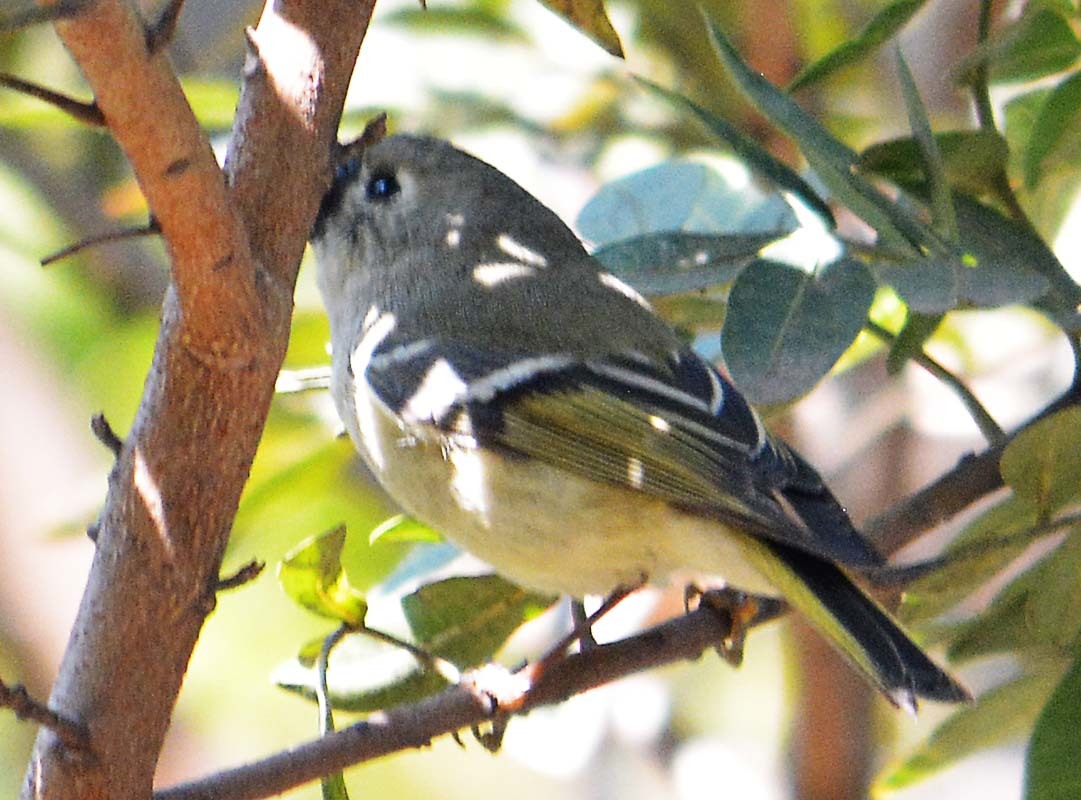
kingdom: Animalia
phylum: Chordata
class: Aves
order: Passeriformes
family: Regulidae
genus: Regulus
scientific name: Regulus calendula
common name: Ruby-crowned kinglet
